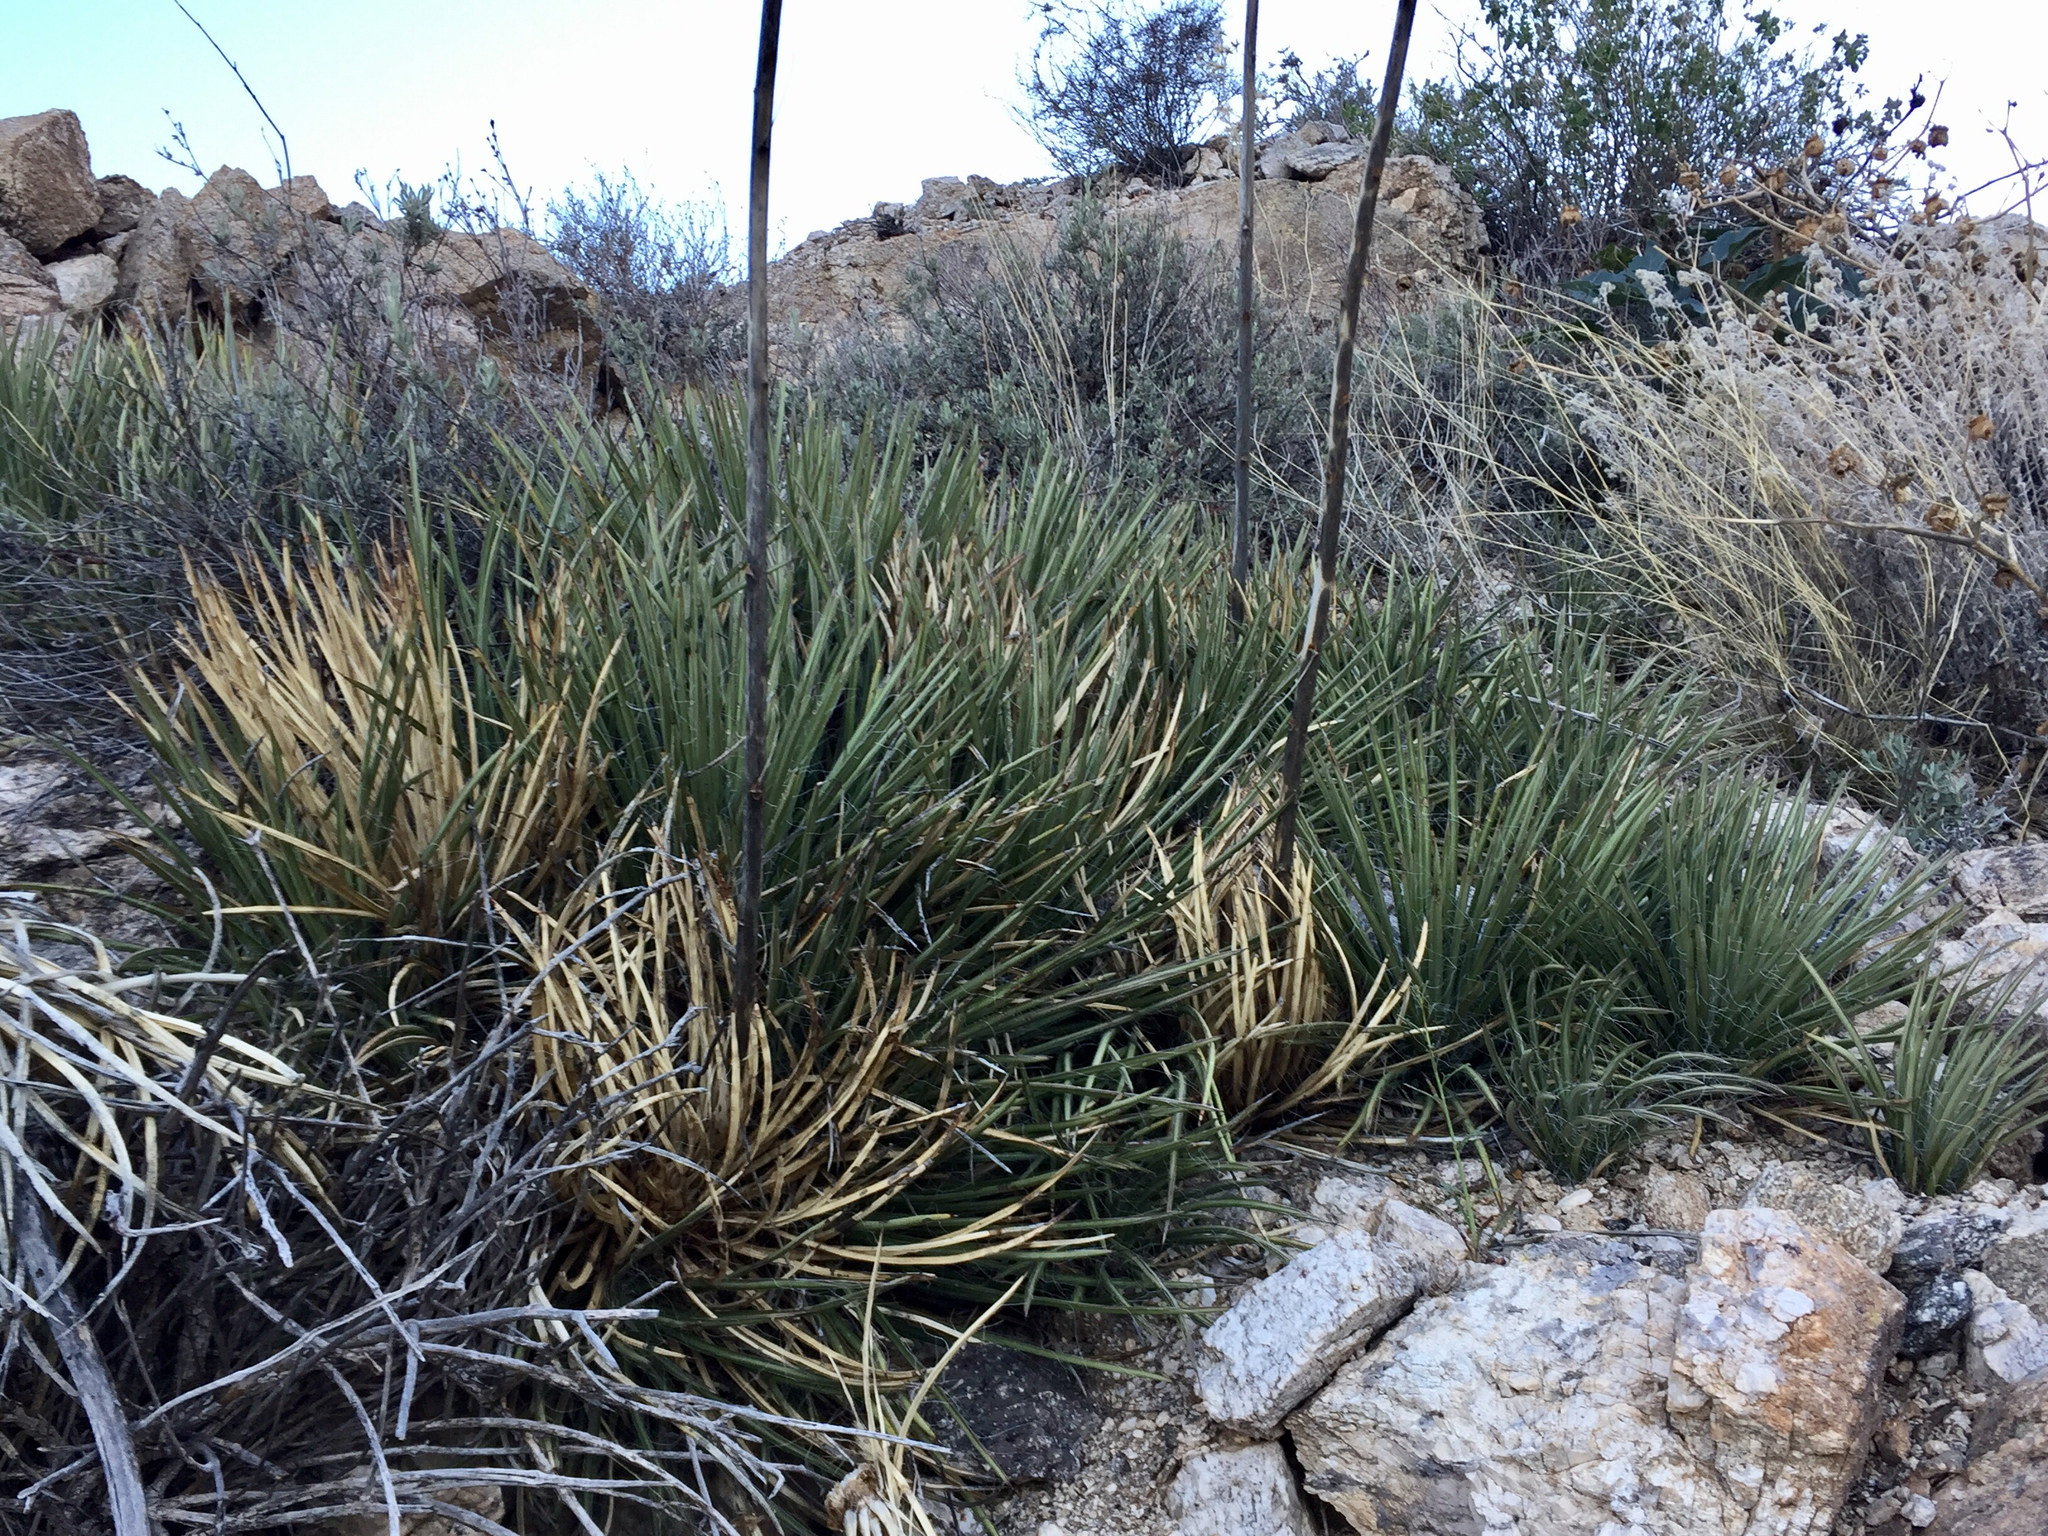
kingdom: Plantae
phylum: Tracheophyta
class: Liliopsida
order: Asparagales
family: Asparagaceae
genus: Agave
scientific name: Agave schottii
